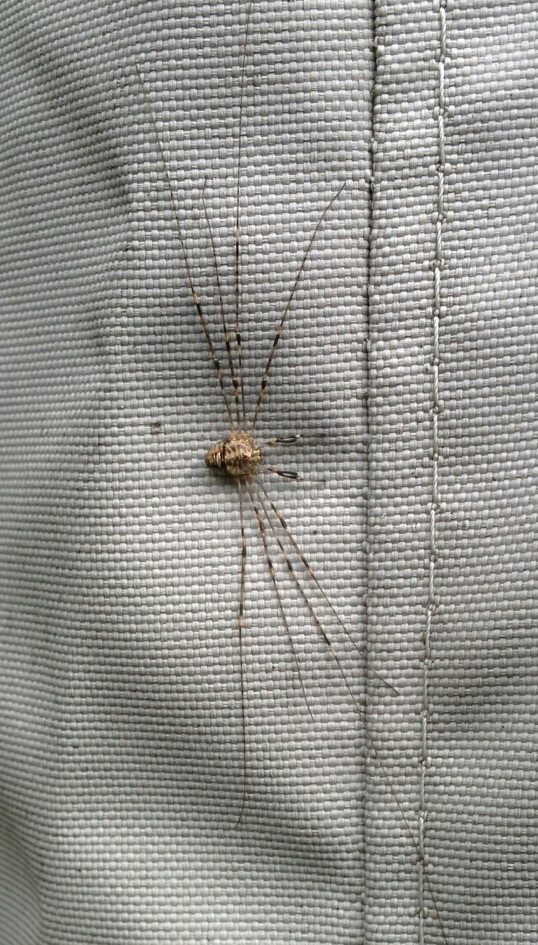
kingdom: Animalia
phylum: Arthropoda
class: Arachnida
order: Opiliones
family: Phalangiidae
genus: Dicranopalpus
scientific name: Dicranopalpus ramosus
